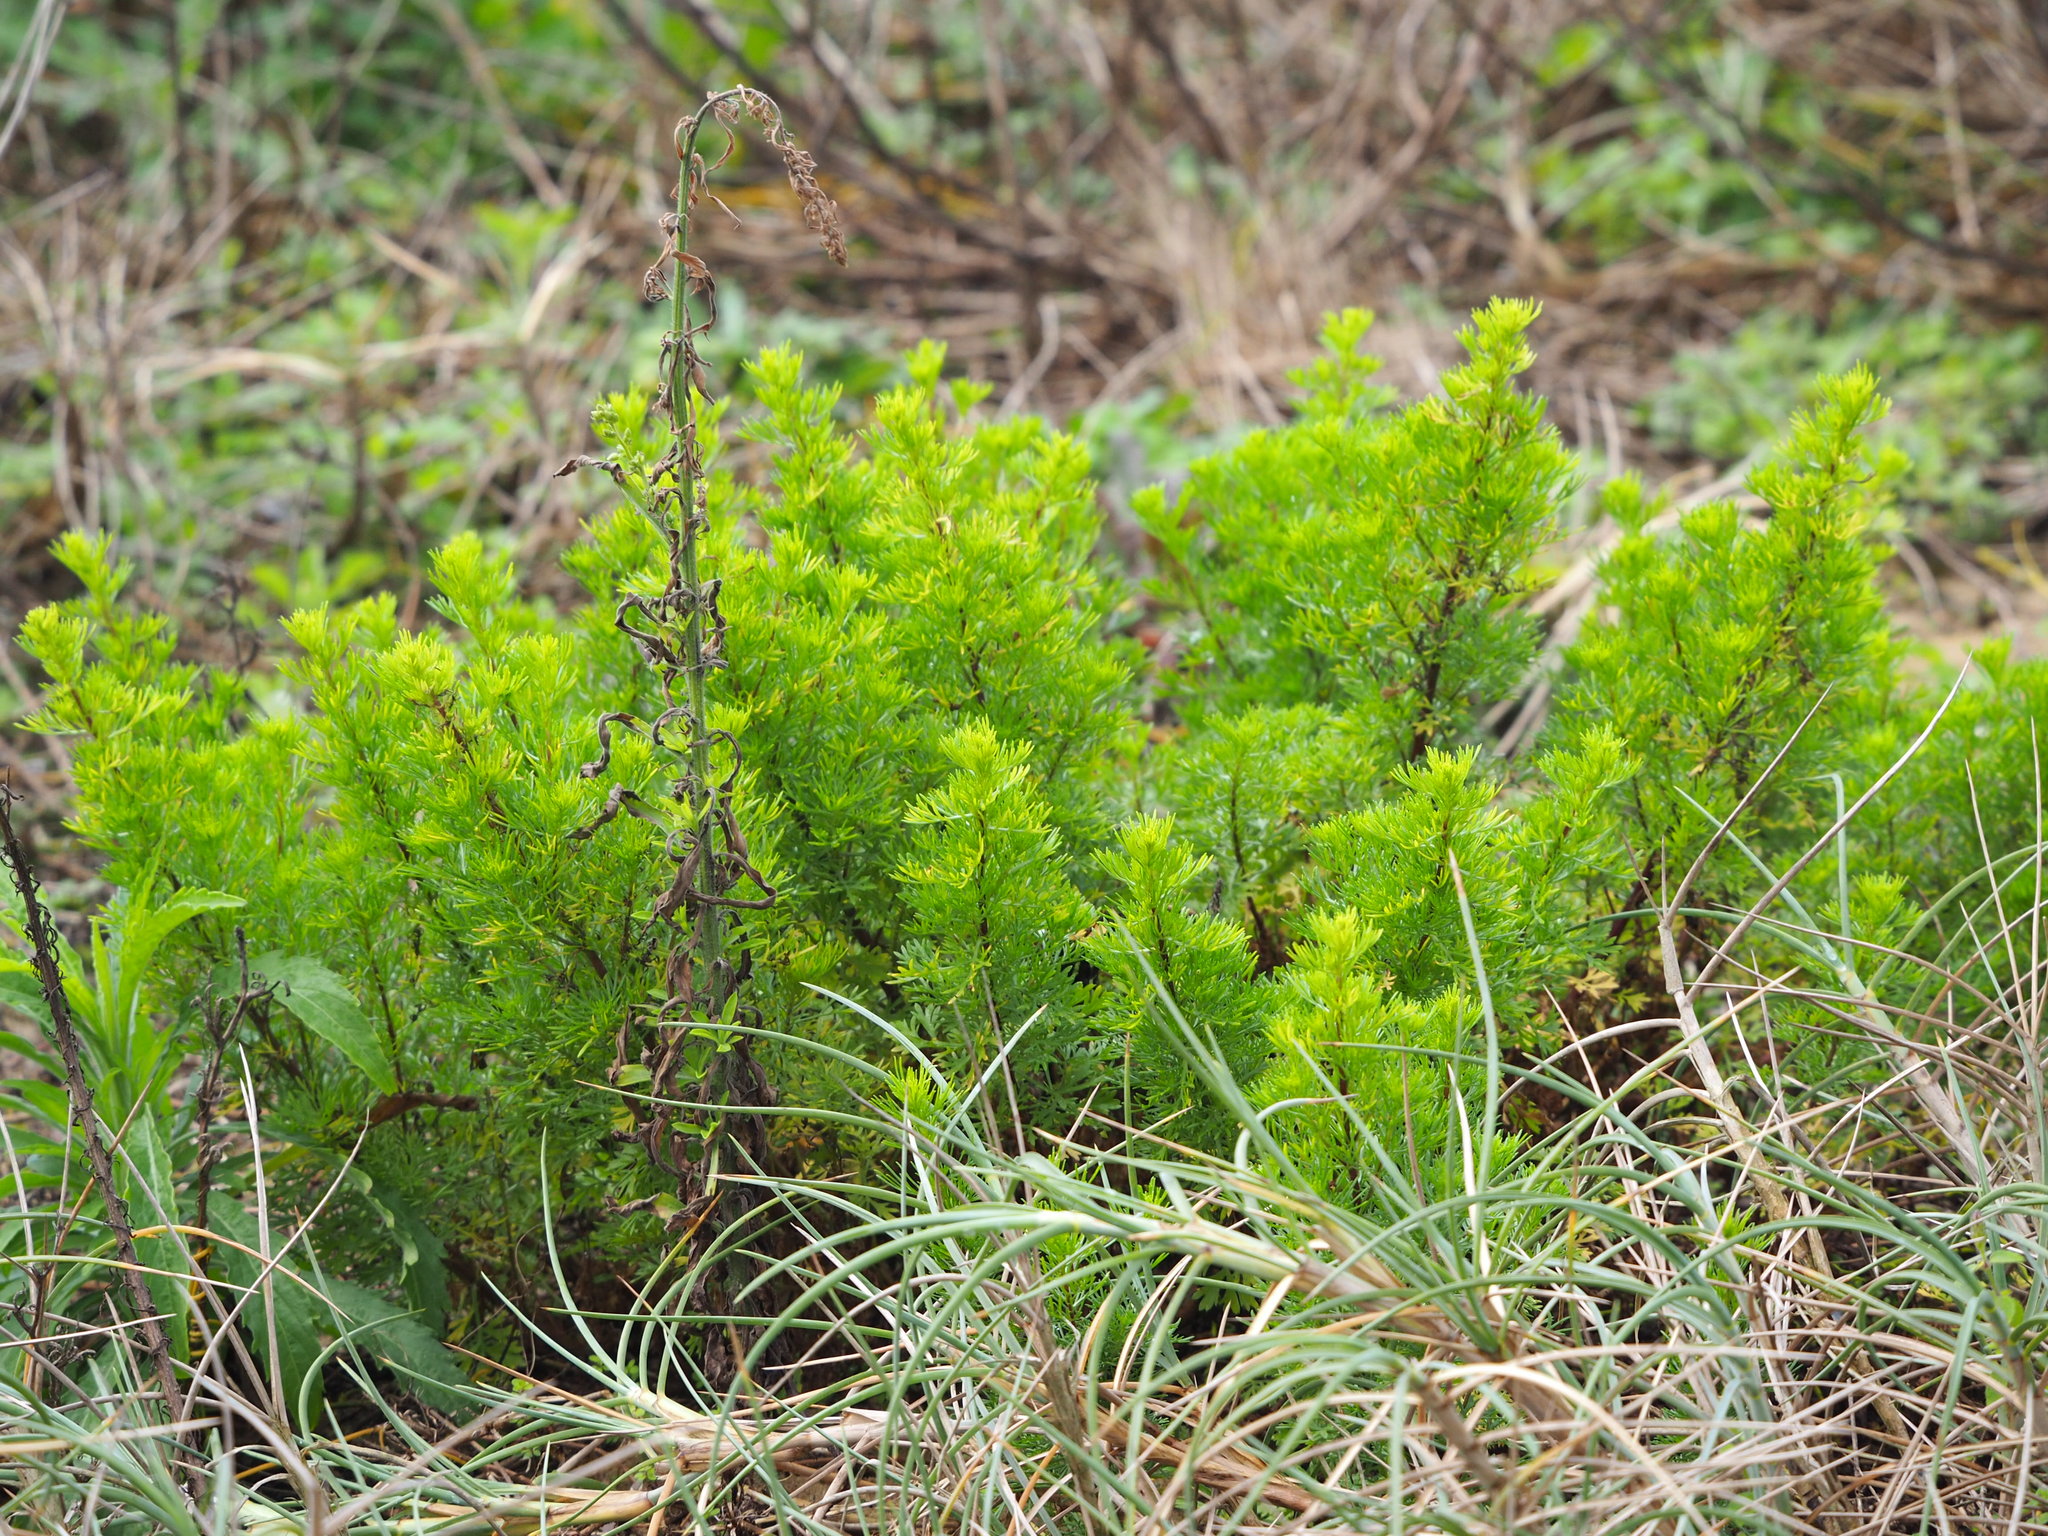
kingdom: Plantae
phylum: Tracheophyta
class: Magnoliopsida
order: Asterales
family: Asteraceae
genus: Artemisia
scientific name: Artemisia capillaris
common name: Yin-chen wormwood
